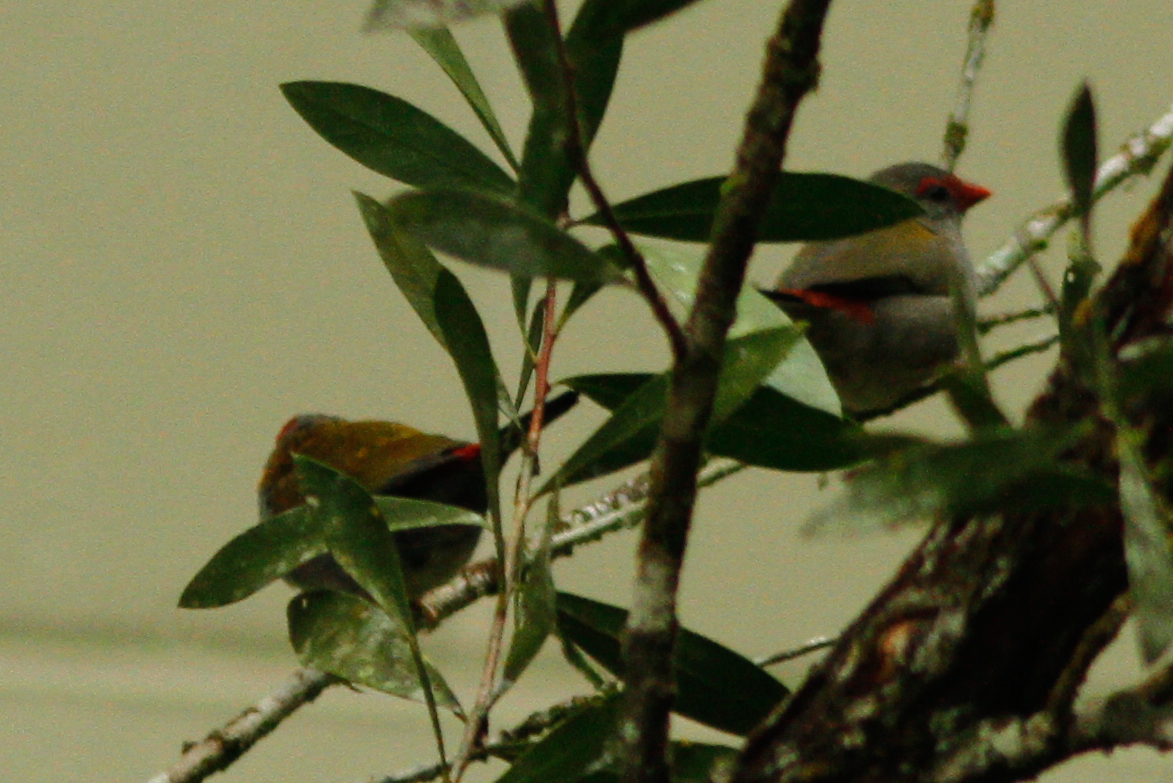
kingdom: Animalia
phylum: Chordata
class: Aves
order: Passeriformes
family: Estrildidae
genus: Neochmia
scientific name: Neochmia temporalis
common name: Red-browed finch
